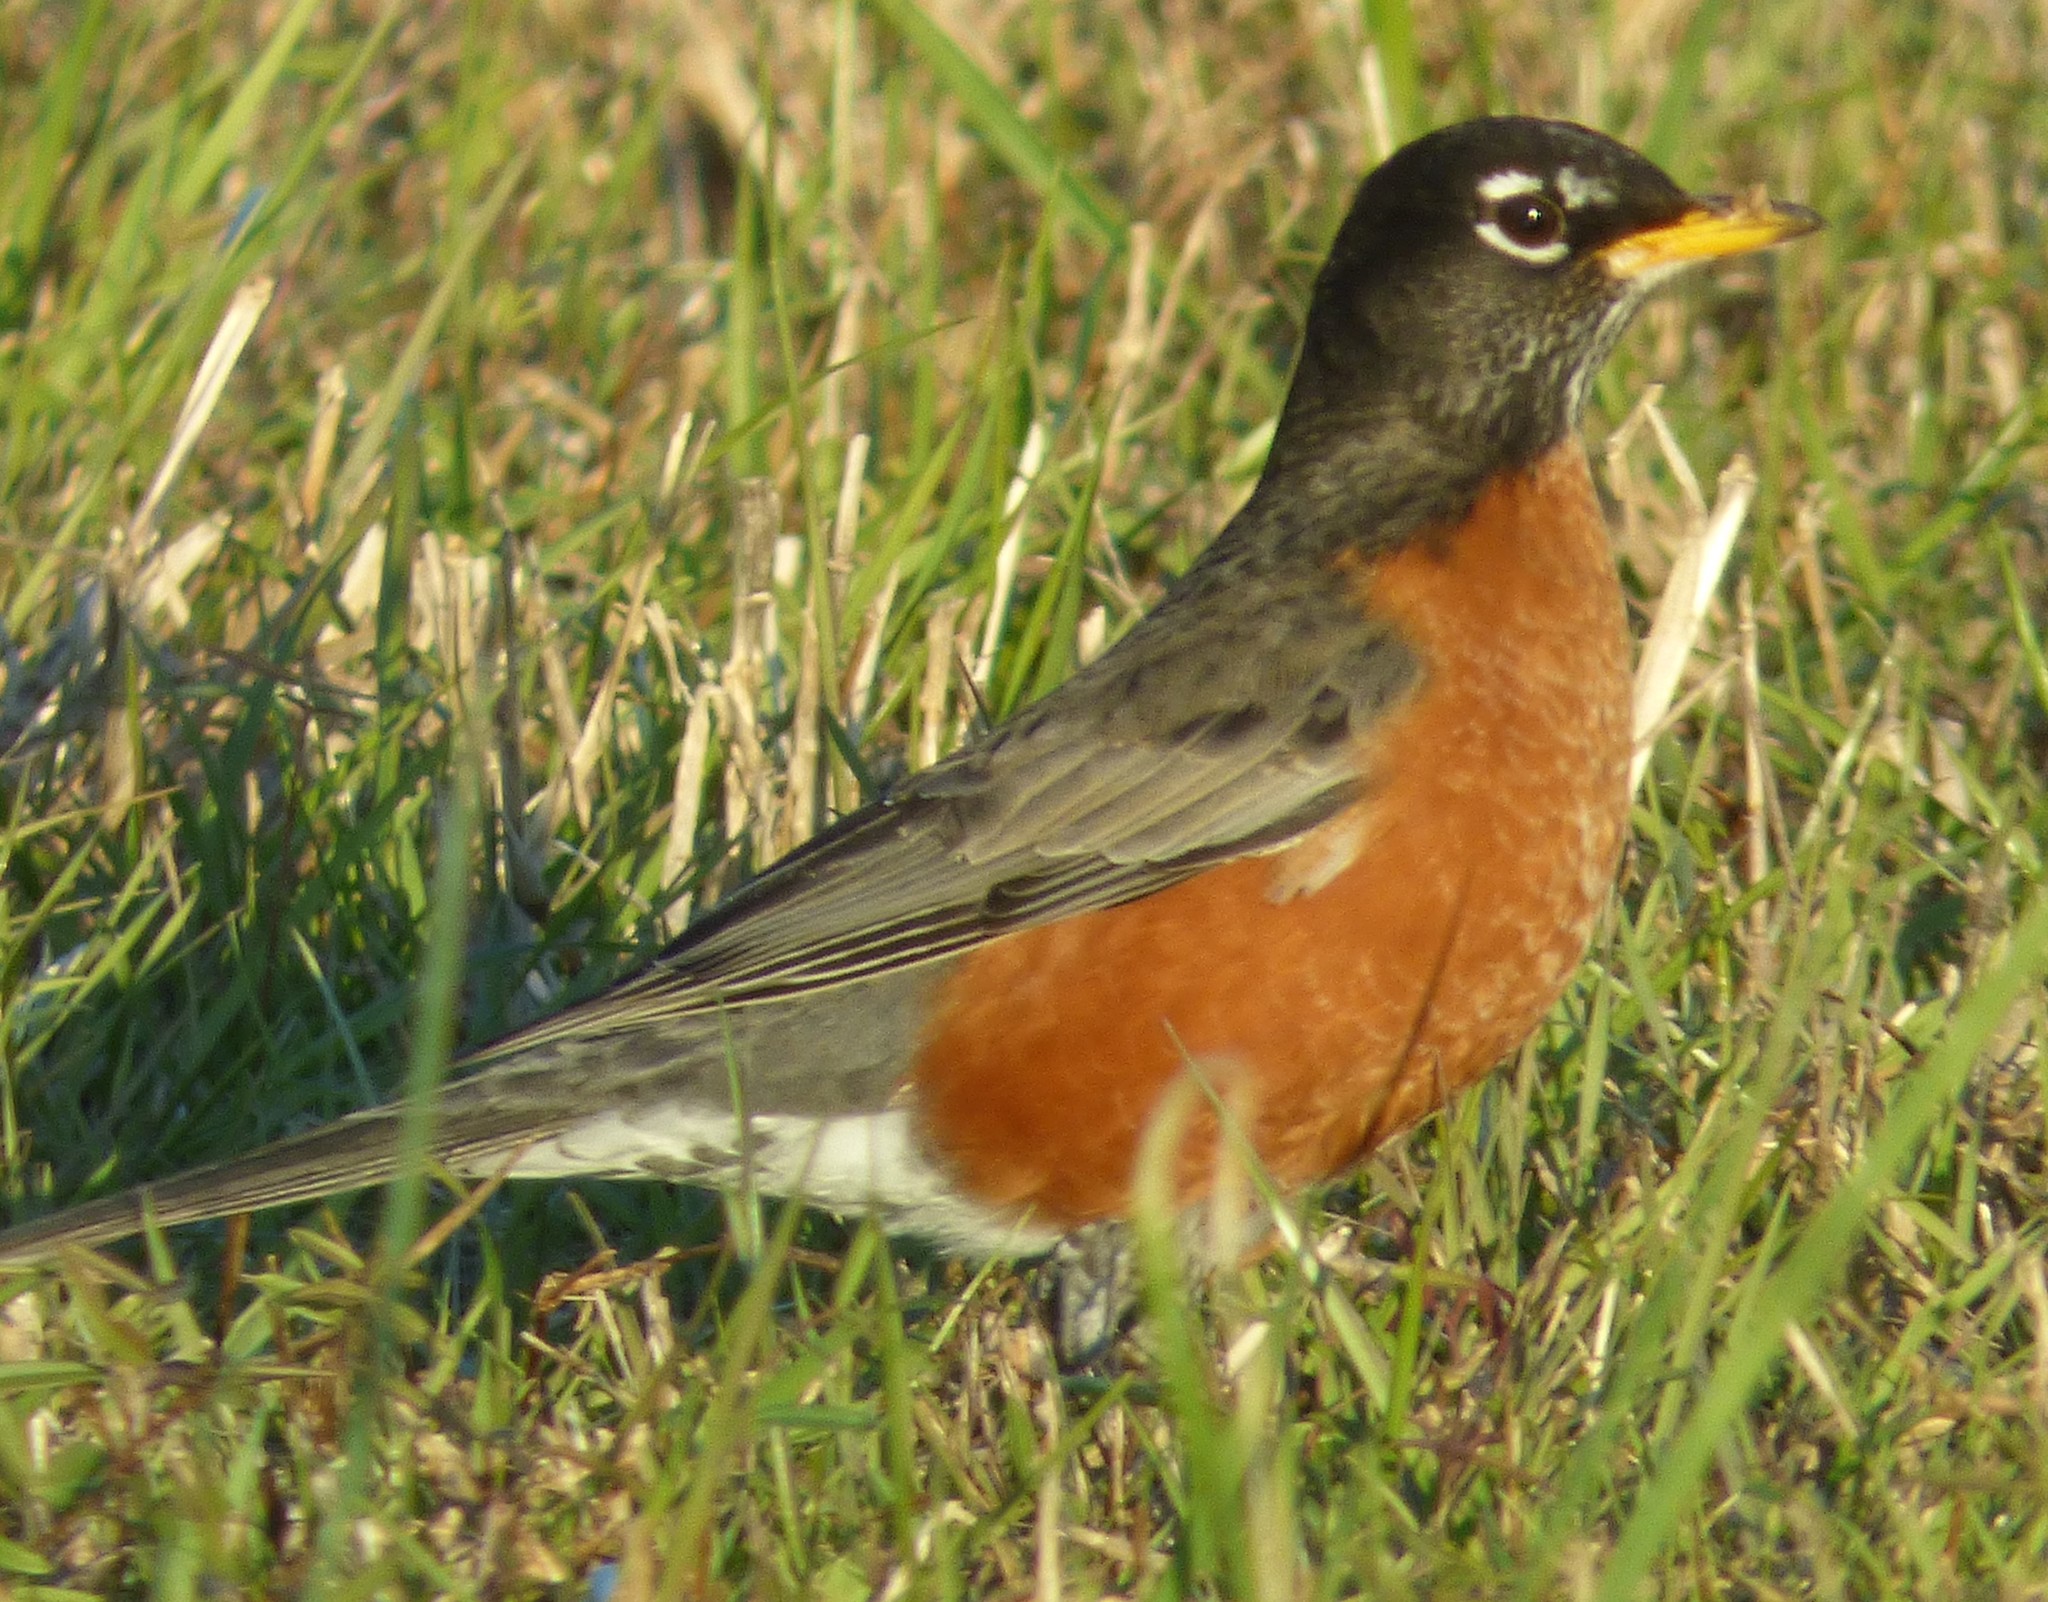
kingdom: Animalia
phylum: Chordata
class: Aves
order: Passeriformes
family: Turdidae
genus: Turdus
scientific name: Turdus migratorius
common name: American robin
